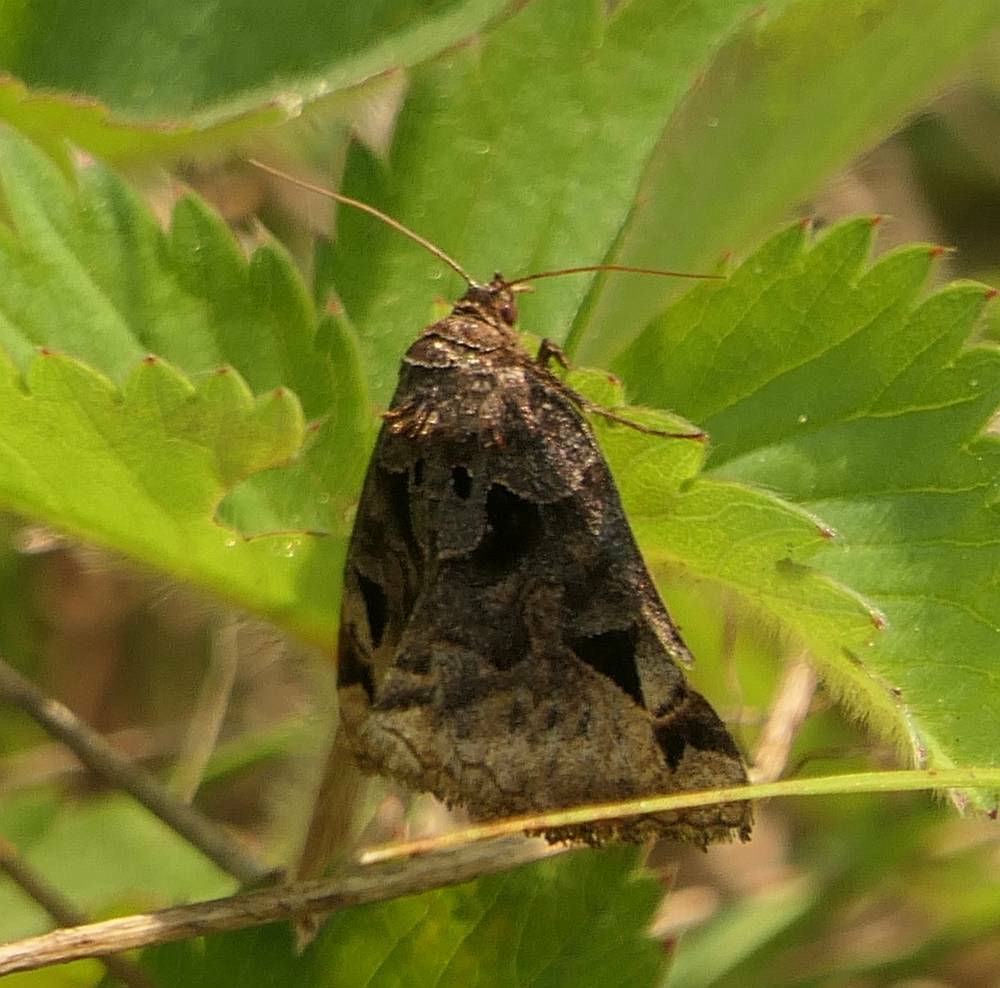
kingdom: Animalia
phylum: Arthropoda
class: Insecta
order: Lepidoptera
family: Erebidae
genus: Euclidia
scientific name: Euclidia cuspidea
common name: Toothed somberwing
